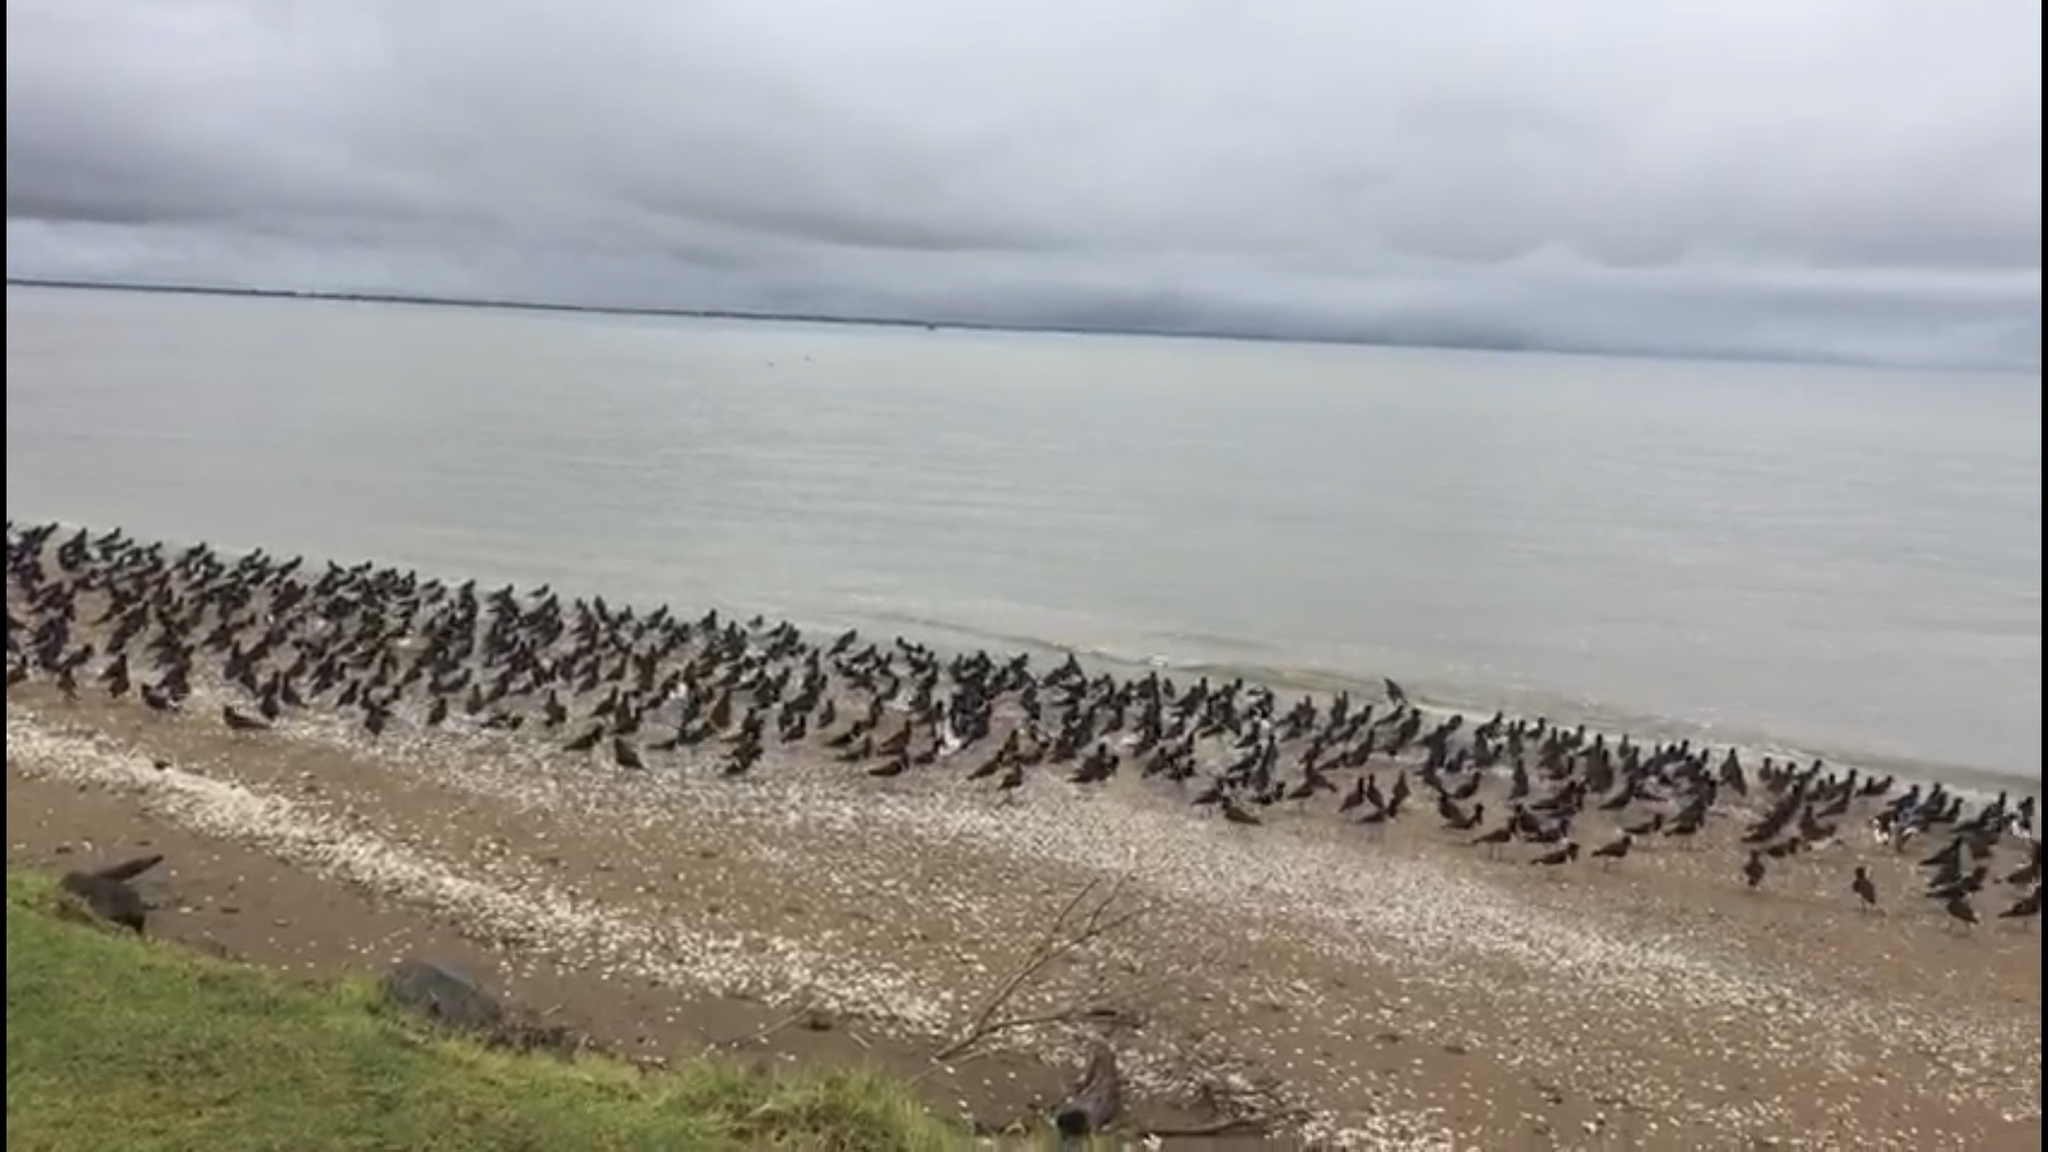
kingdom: Animalia
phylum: Chordata
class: Aves
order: Charadriiformes
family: Haematopodidae
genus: Haematopus
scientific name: Haematopus unicolor
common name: Variable oystercatcher
